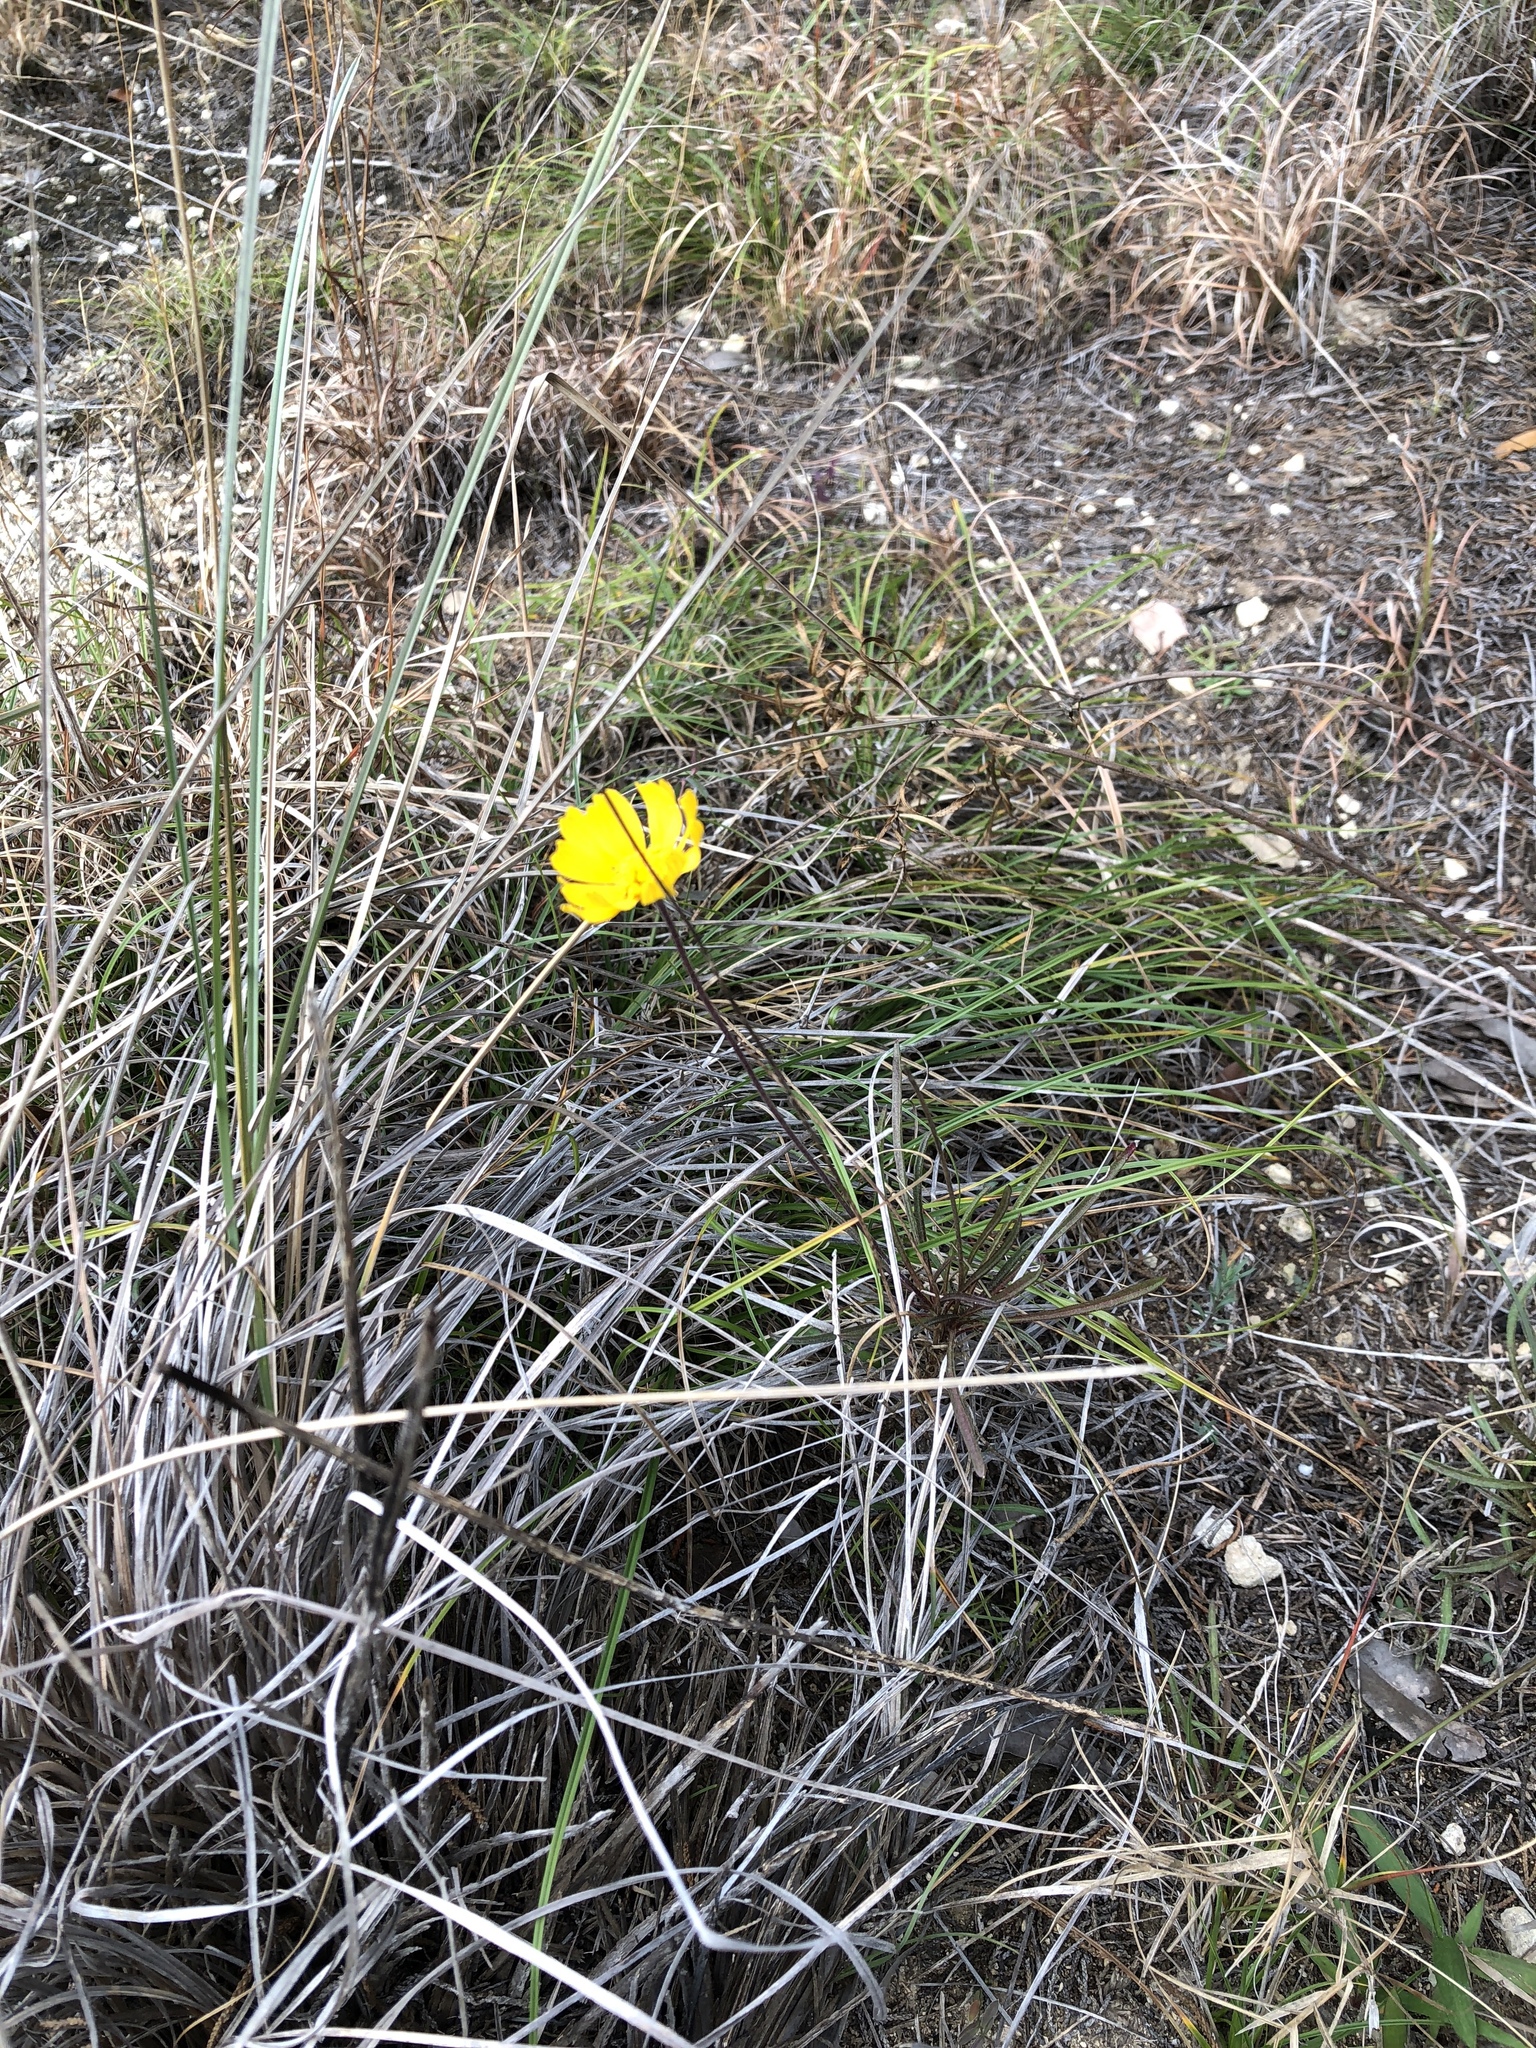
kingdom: Plantae
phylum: Tracheophyta
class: Magnoliopsida
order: Asterales
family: Asteraceae
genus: Tetraneuris
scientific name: Tetraneuris scaposa
